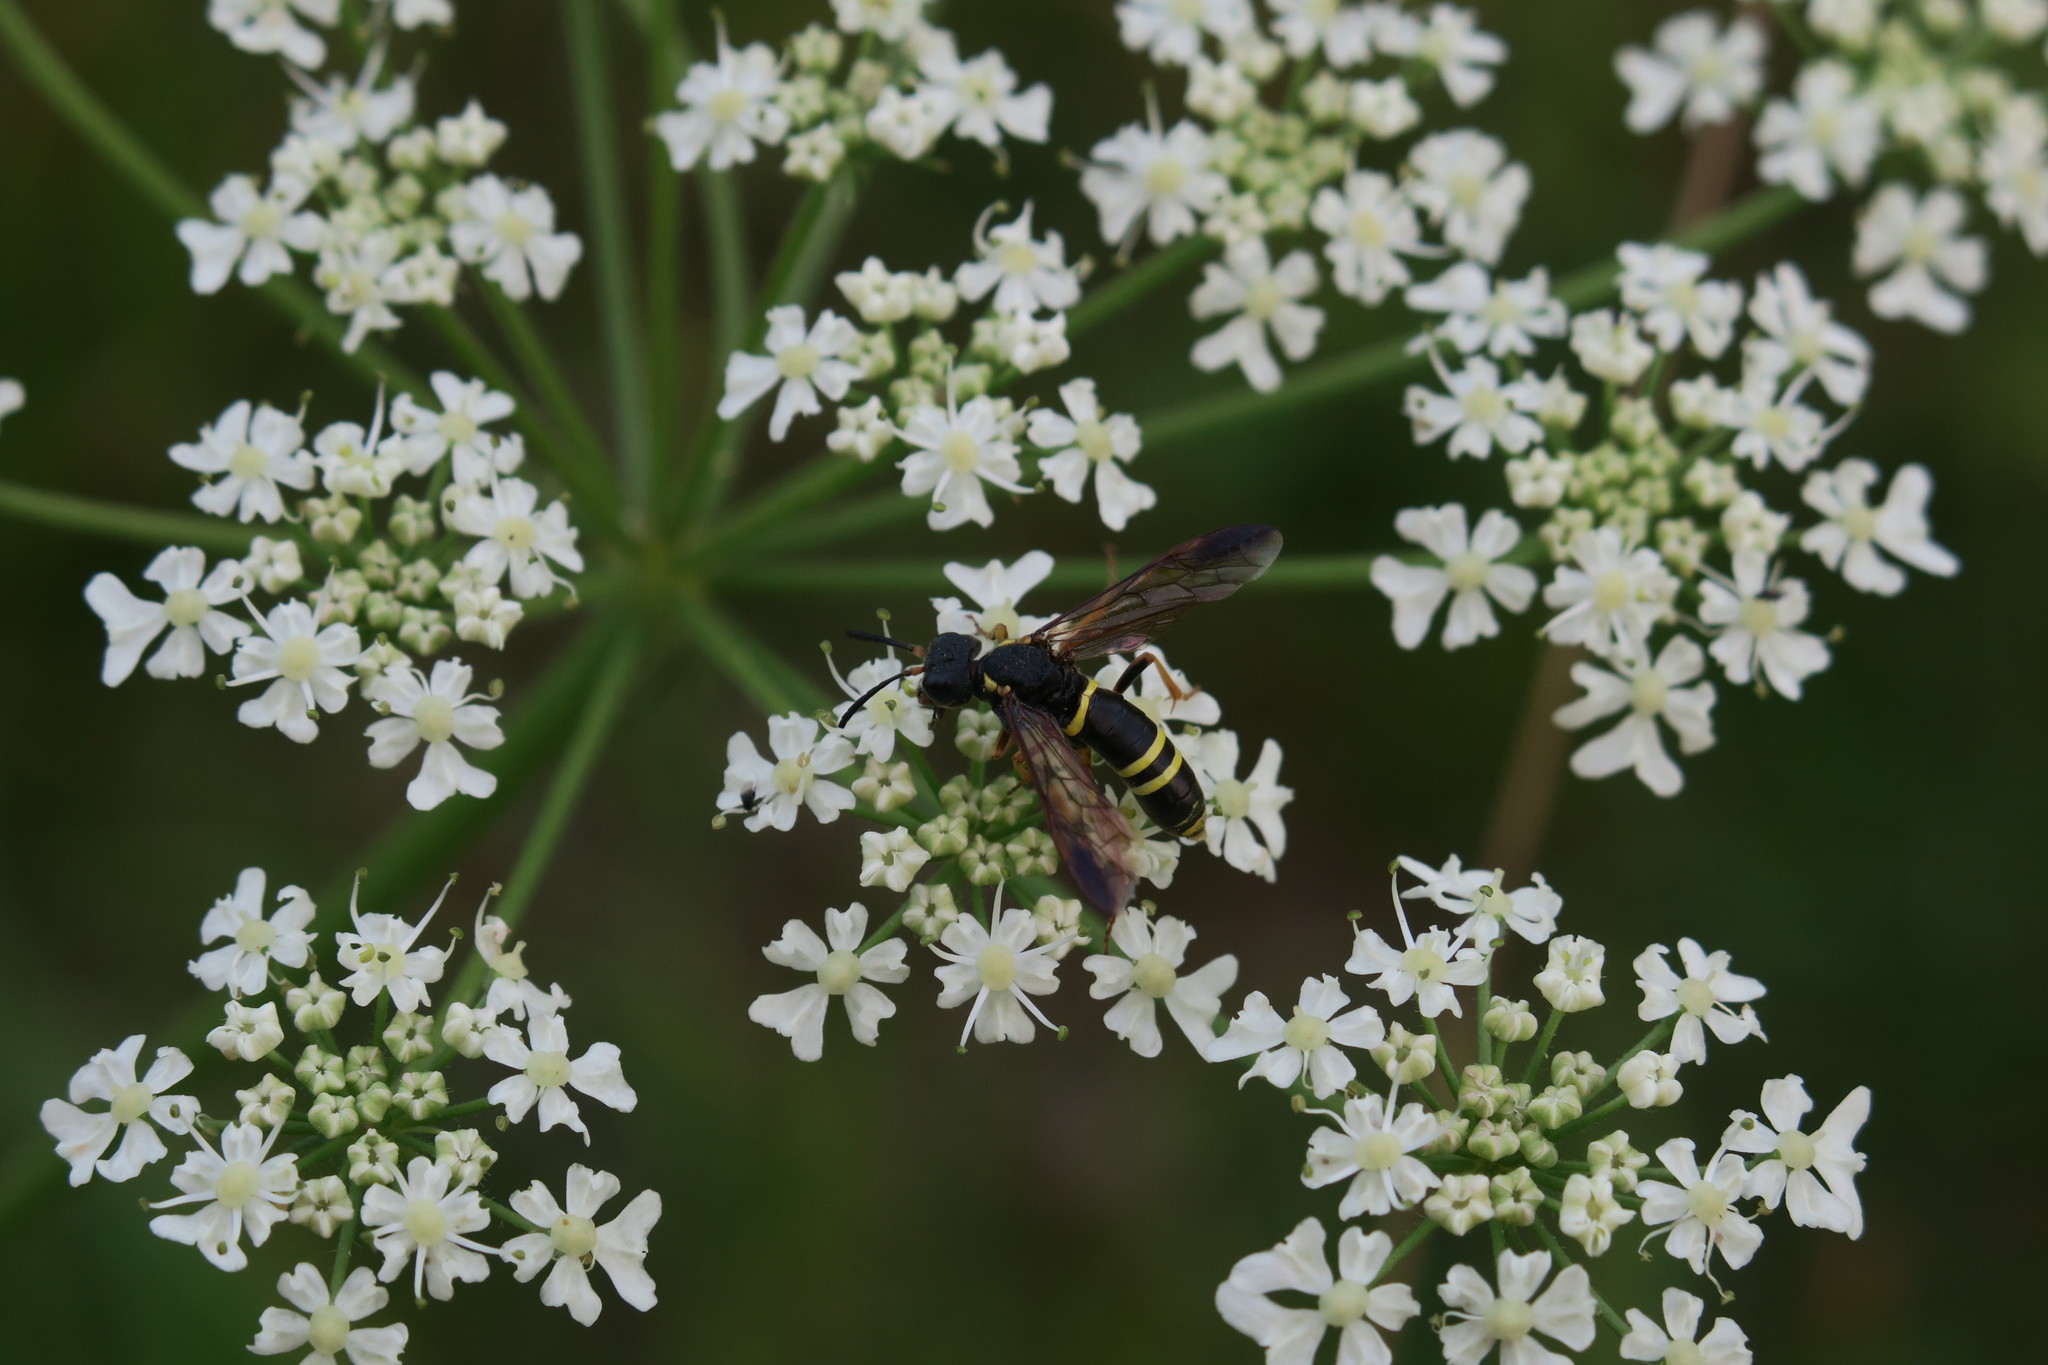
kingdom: Animalia
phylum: Arthropoda
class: Insecta
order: Hymenoptera
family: Tenthredinidae
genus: Tenthredo
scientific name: Tenthredo vespa
